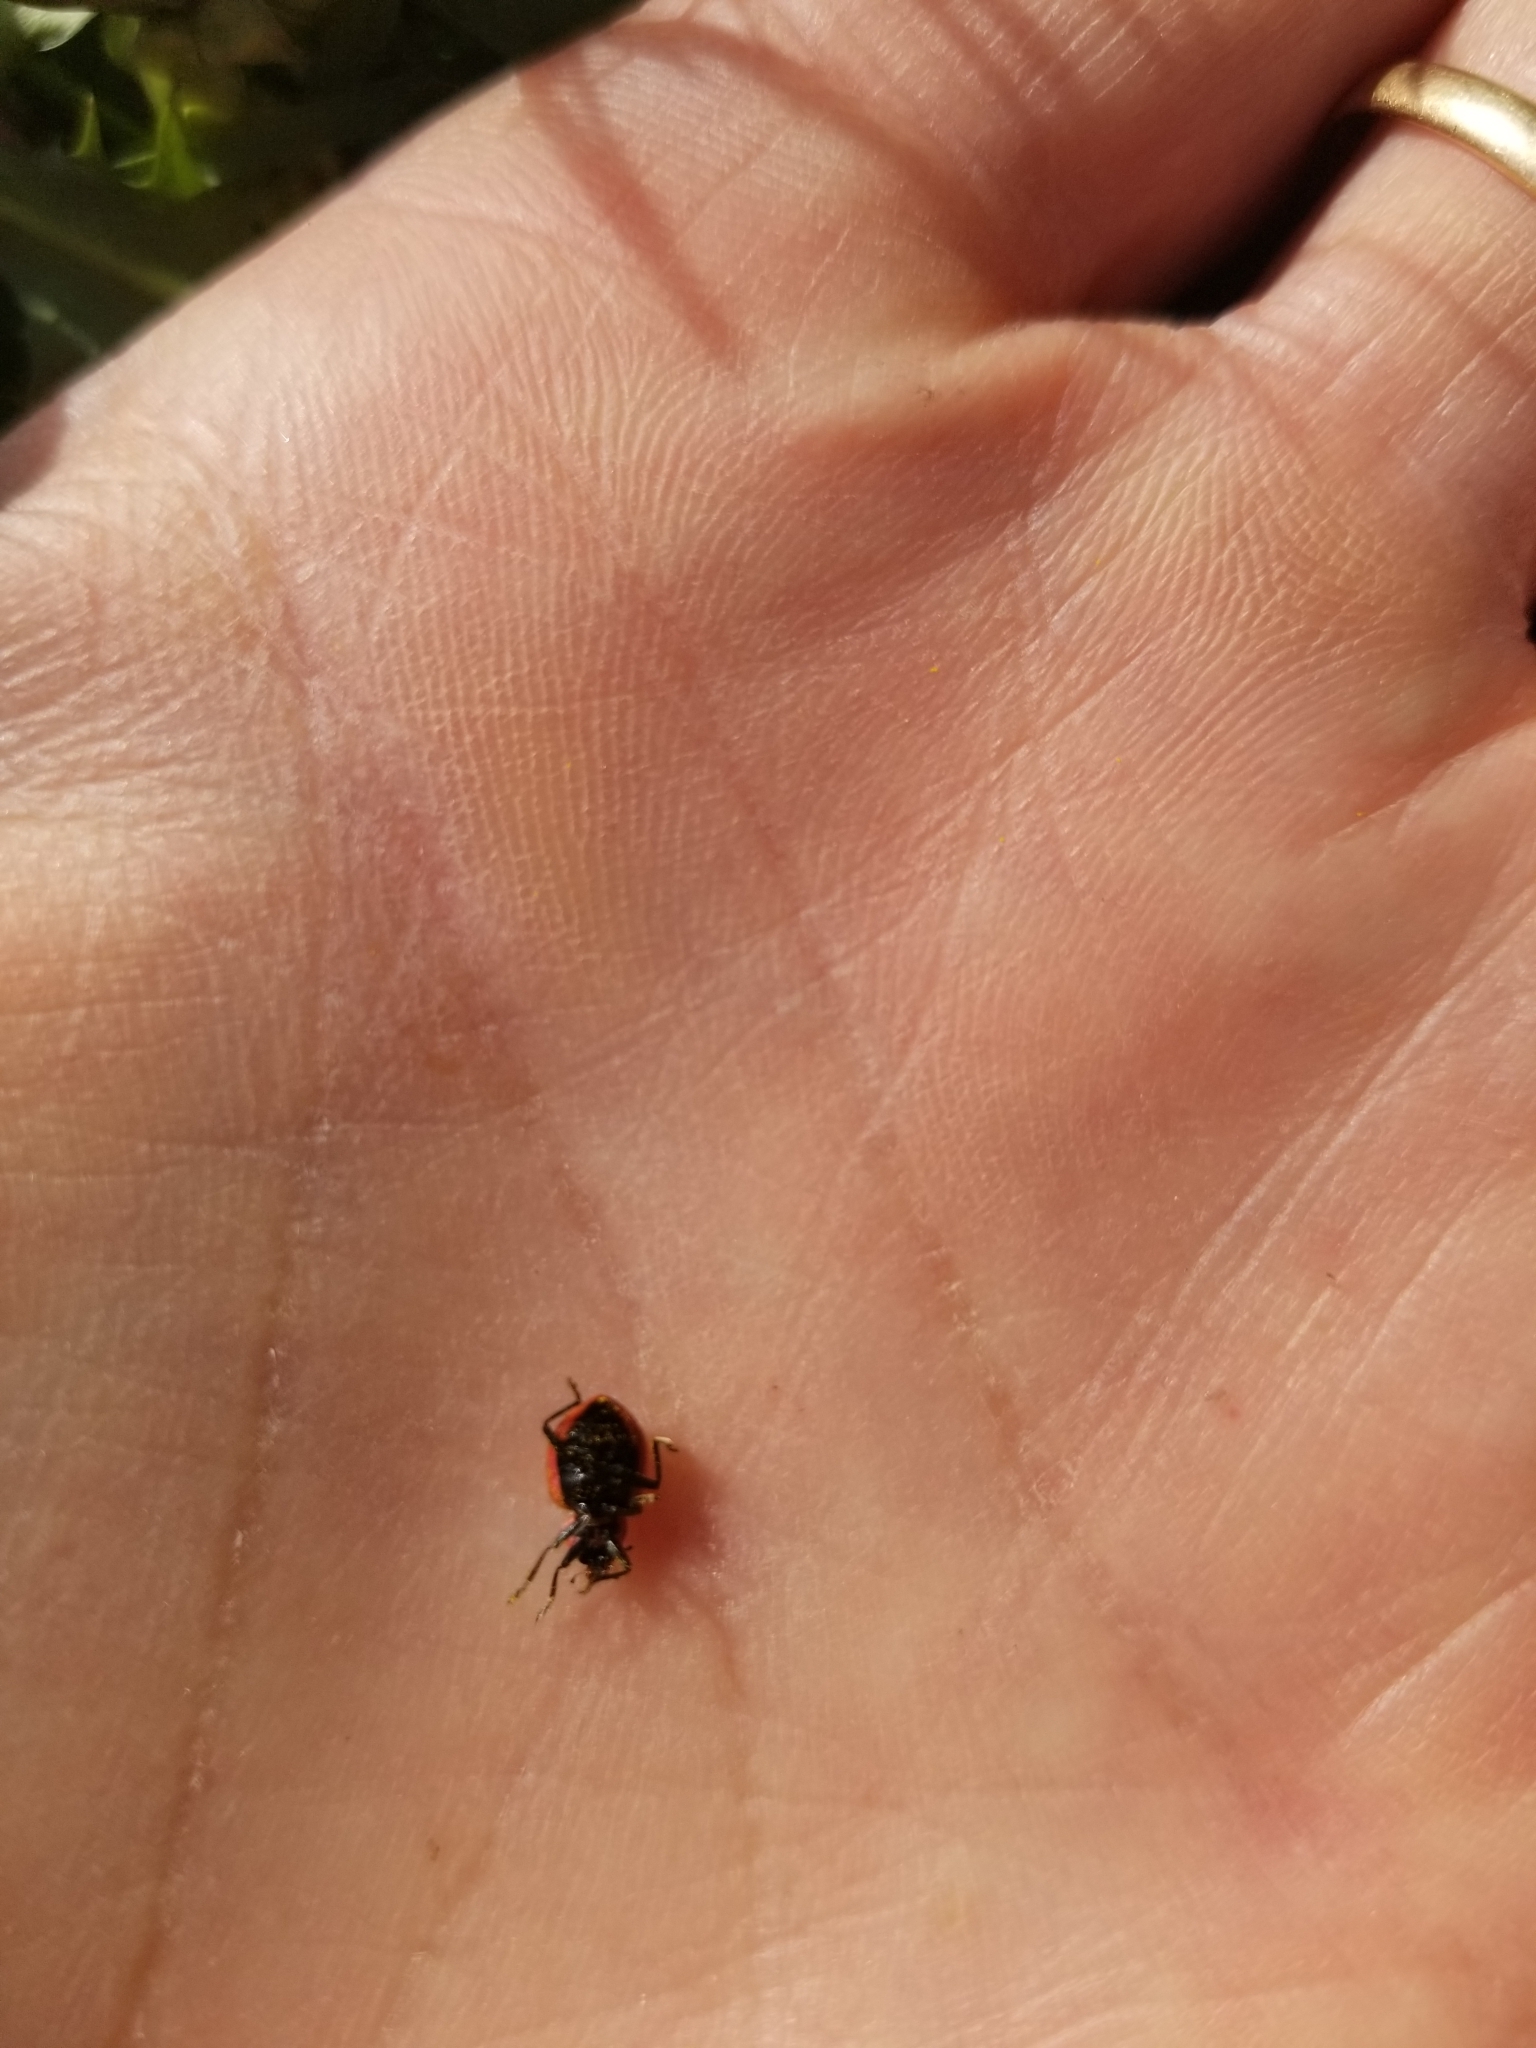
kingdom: Animalia
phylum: Arthropoda
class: Insecta
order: Coleoptera
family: Coccinellidae
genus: Coleomegilla
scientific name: Coleomegilla maculata
